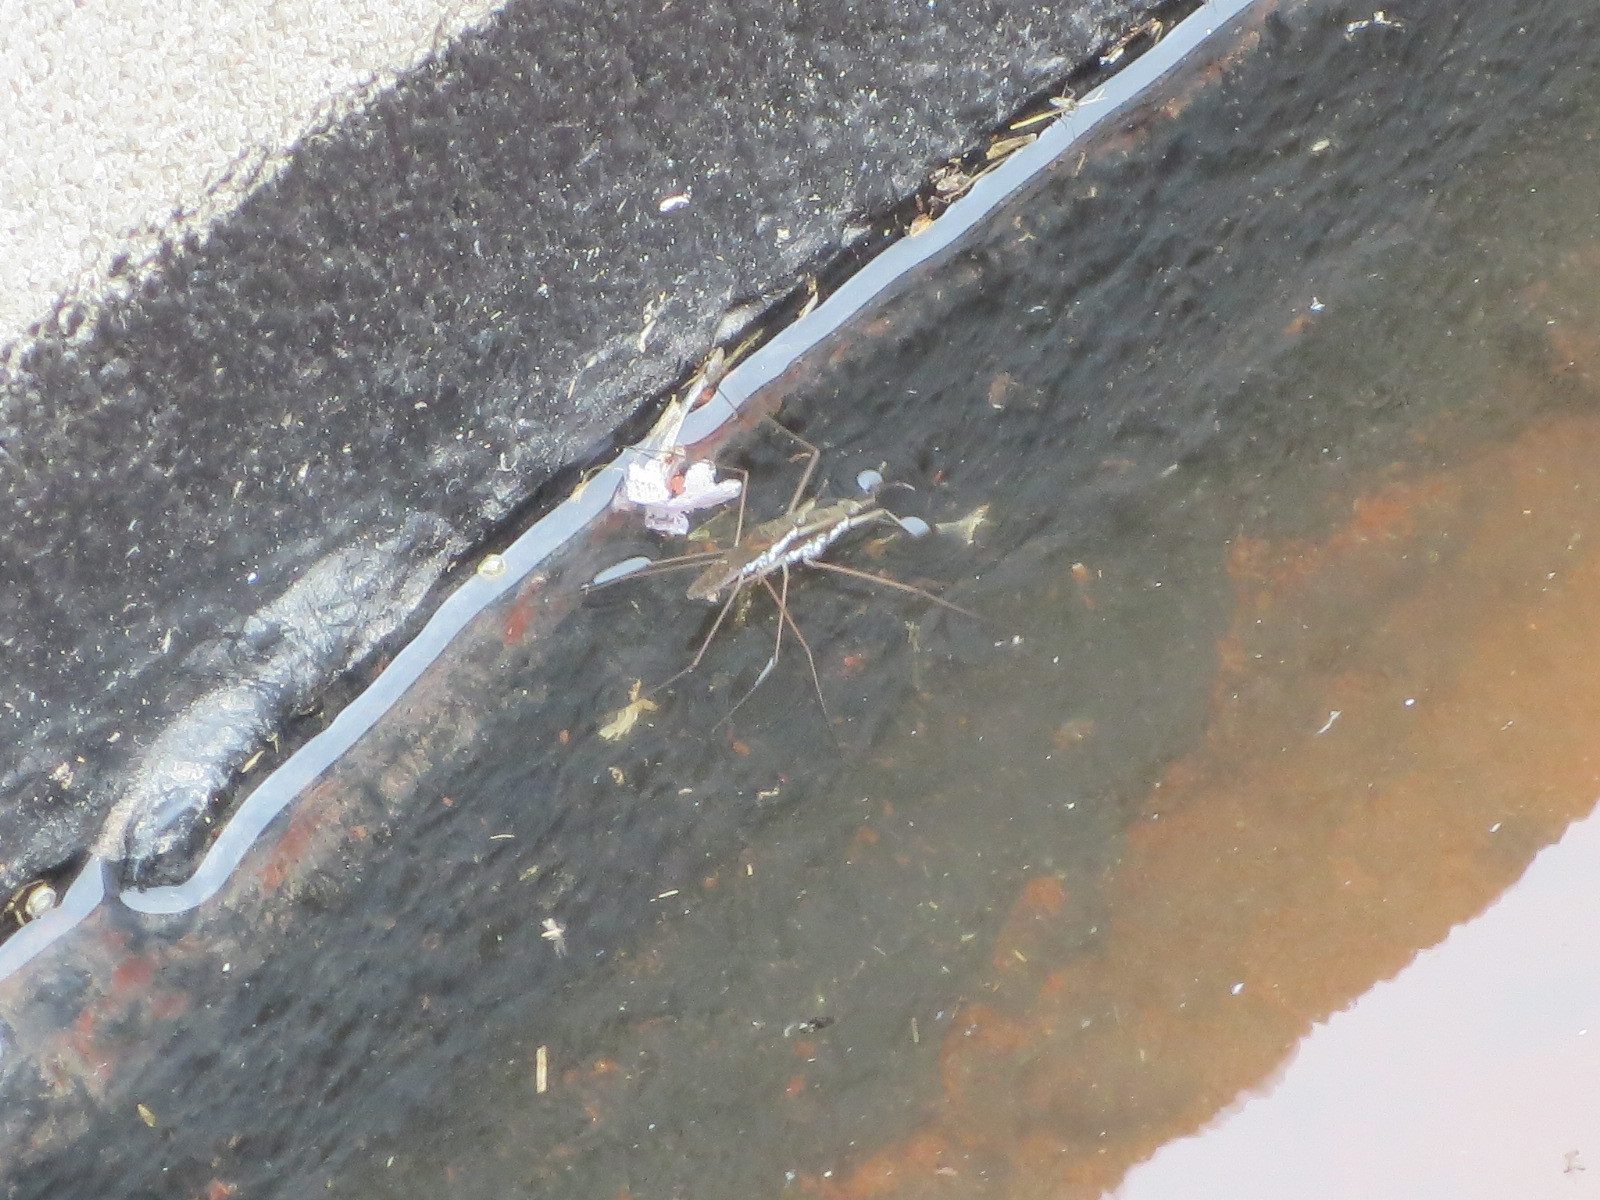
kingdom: Animalia
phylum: Arthropoda
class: Insecta
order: Hemiptera
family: Gerridae
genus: Aquarius
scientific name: Aquarius remigis
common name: Common water strider
